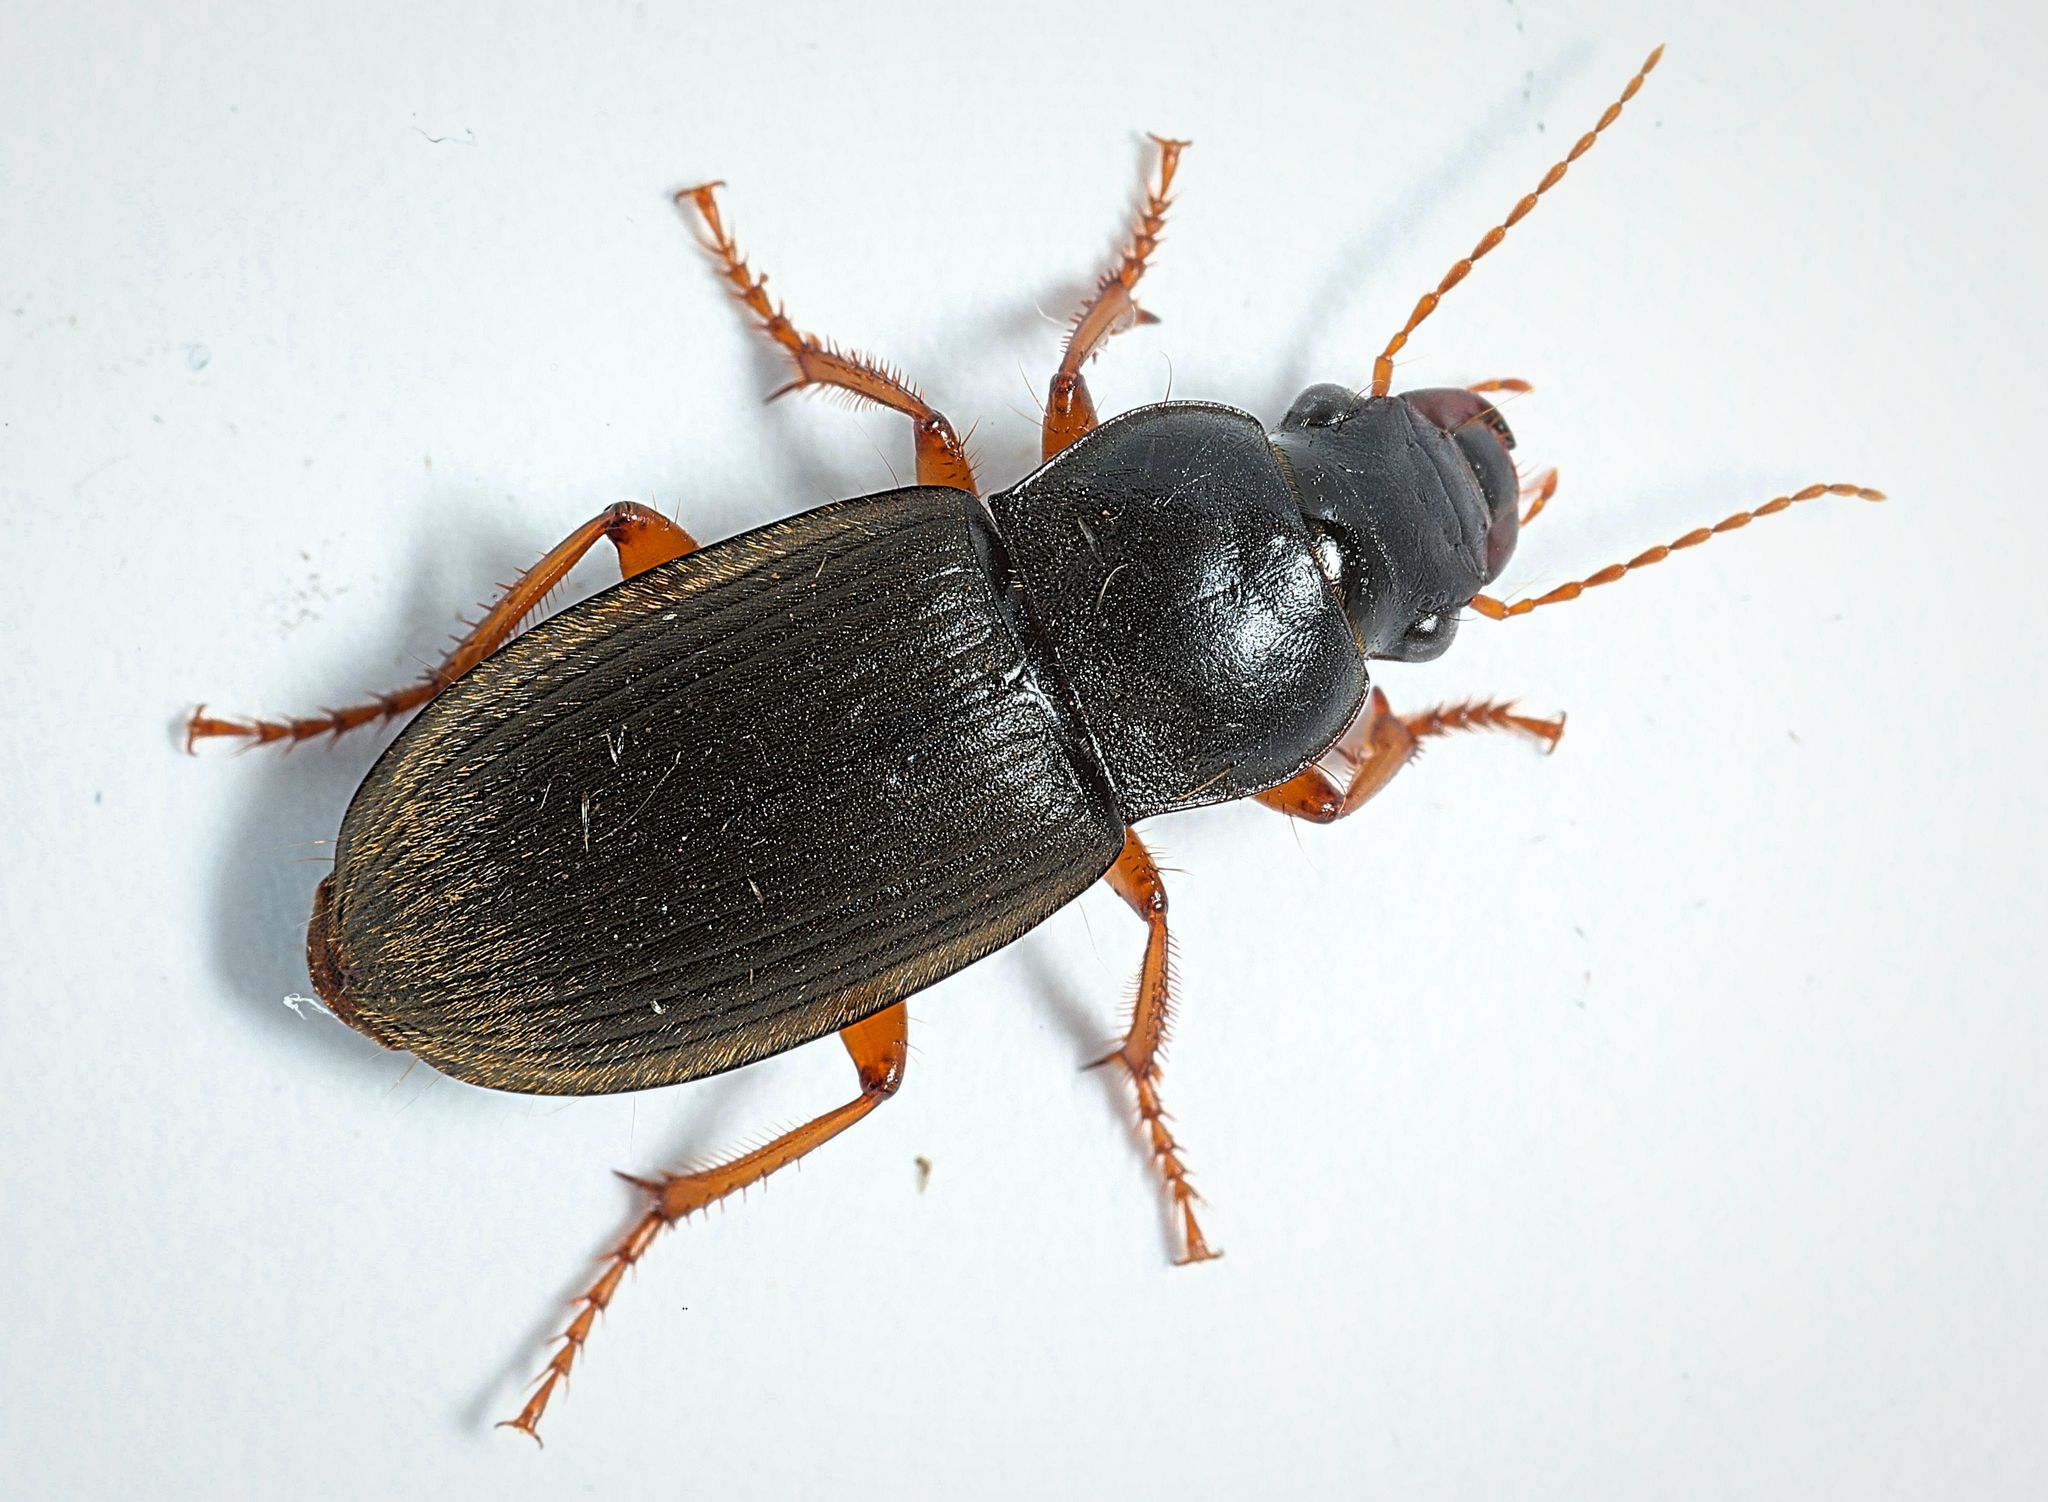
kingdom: Animalia
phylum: Arthropoda
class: Insecta
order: Coleoptera
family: Carabidae
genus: Harpalus
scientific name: Harpalus rufipes
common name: Strawberry harp ground beetle
